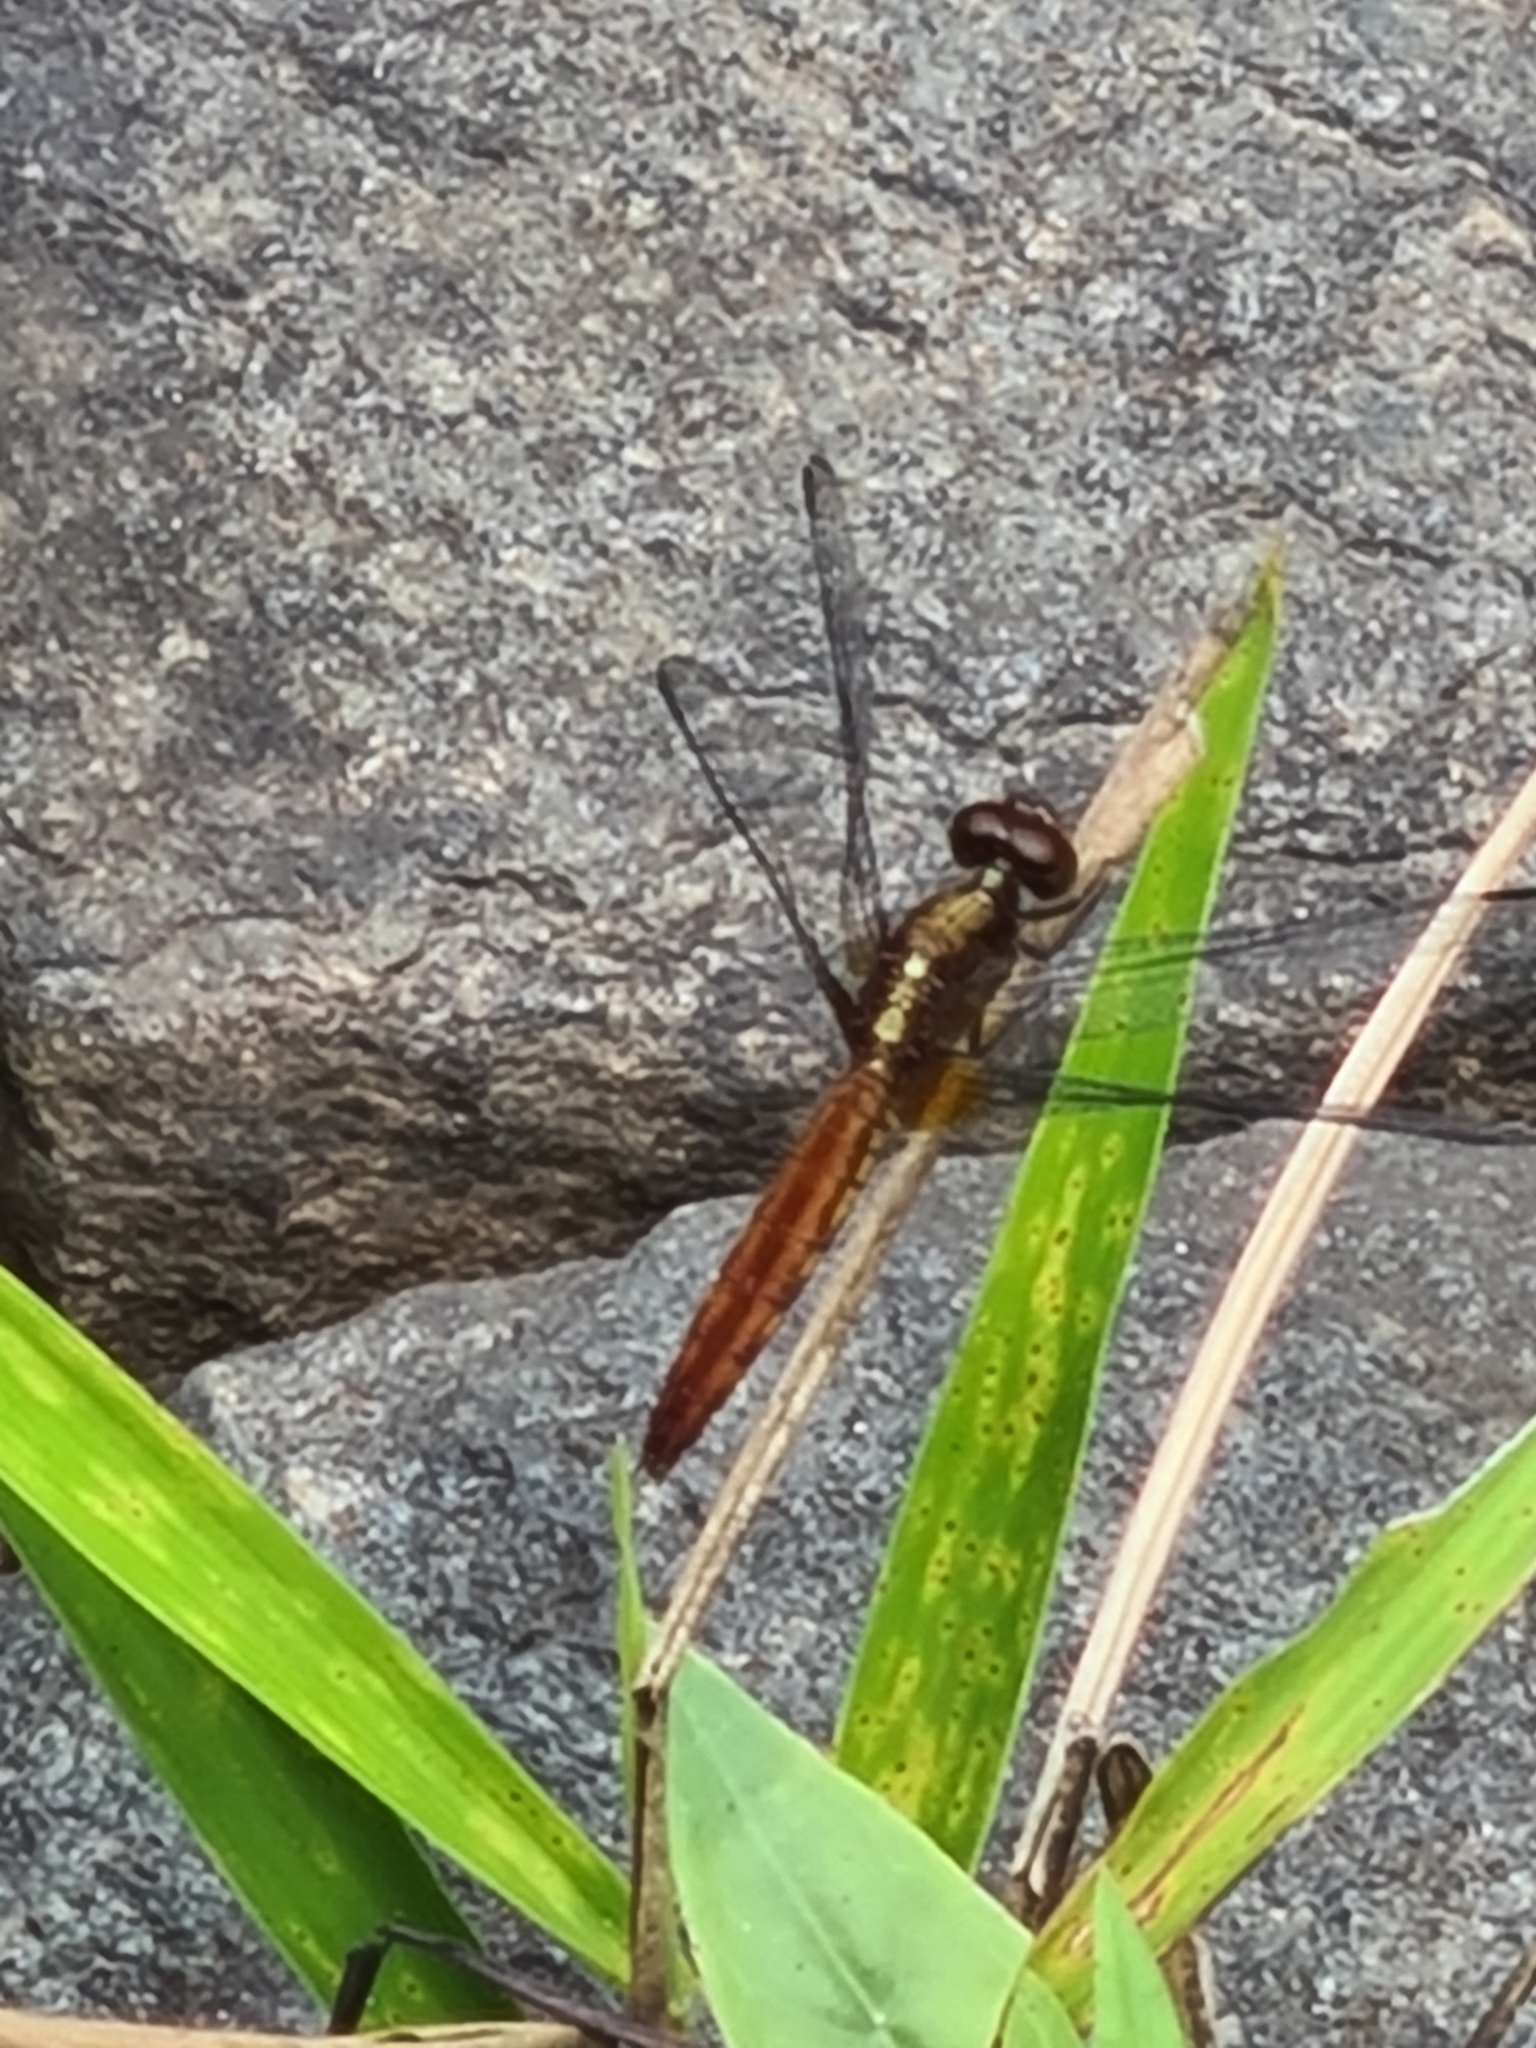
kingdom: Animalia
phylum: Arthropoda
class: Insecta
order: Odonata
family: Libellulidae
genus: Erythrodiplax
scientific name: Erythrodiplax fusca
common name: Red-faced dragonlet
